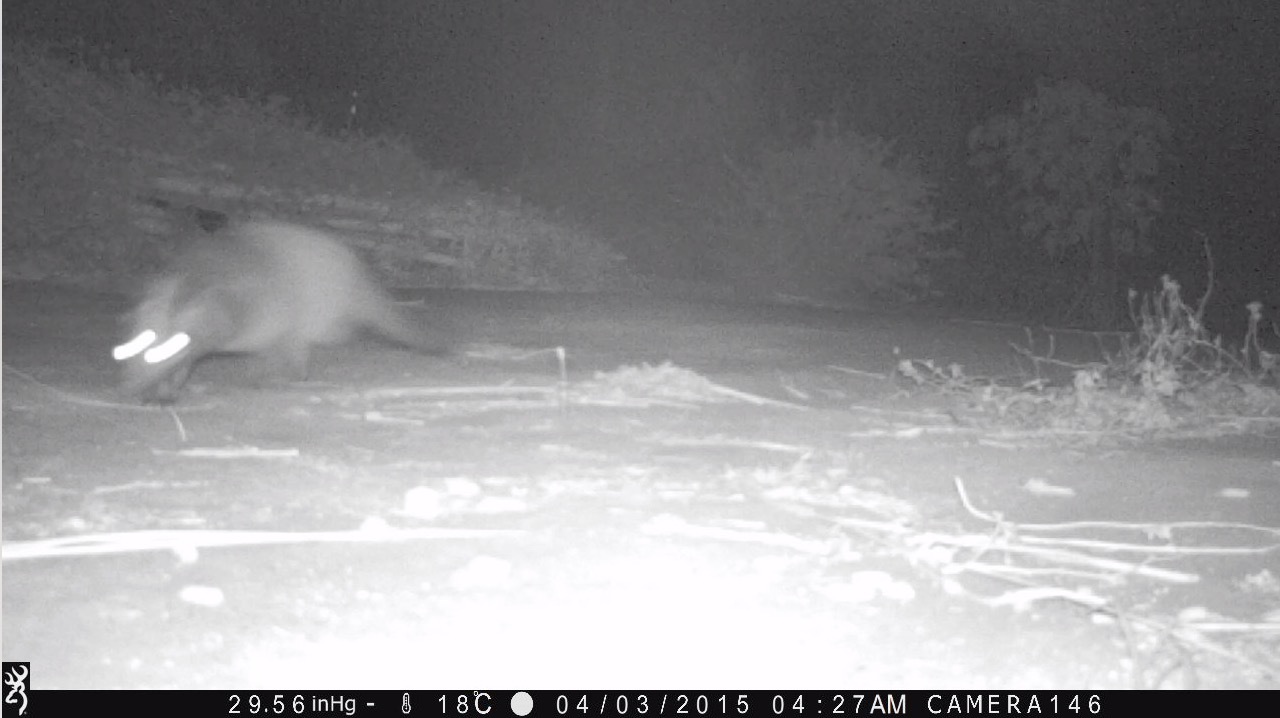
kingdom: Animalia
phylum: Chordata
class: Mammalia
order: Carnivora
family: Viverridae
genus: Paguma
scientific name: Paguma larvata
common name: Masked palm civet
